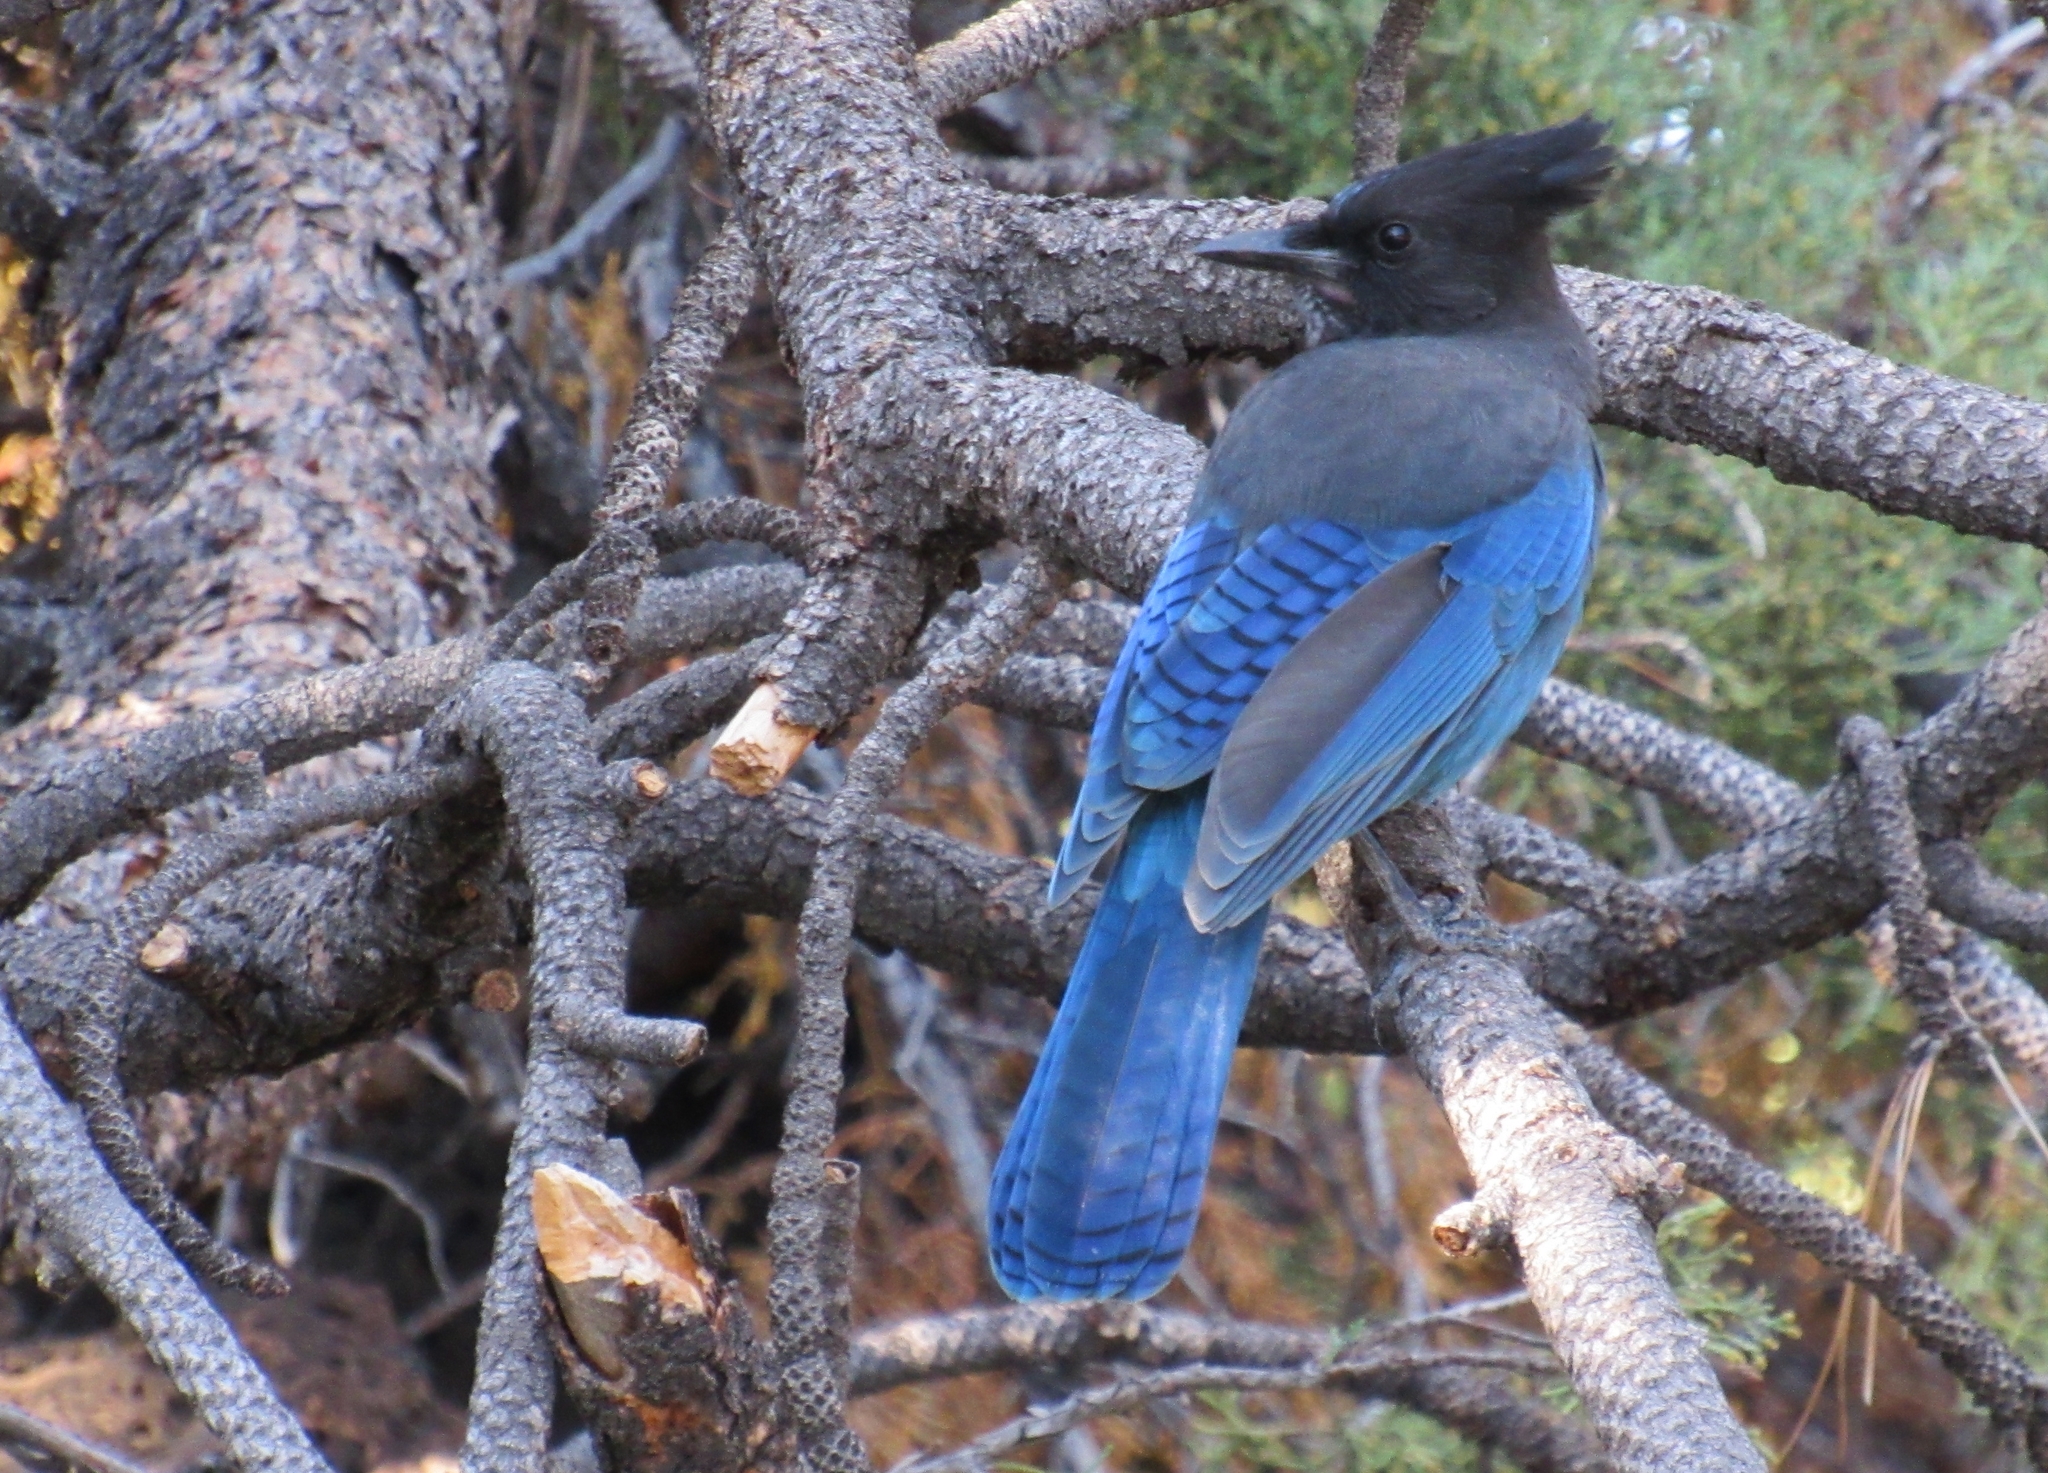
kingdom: Animalia
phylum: Chordata
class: Aves
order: Passeriformes
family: Corvidae
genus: Cyanocitta
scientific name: Cyanocitta stelleri
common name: Steller's jay
